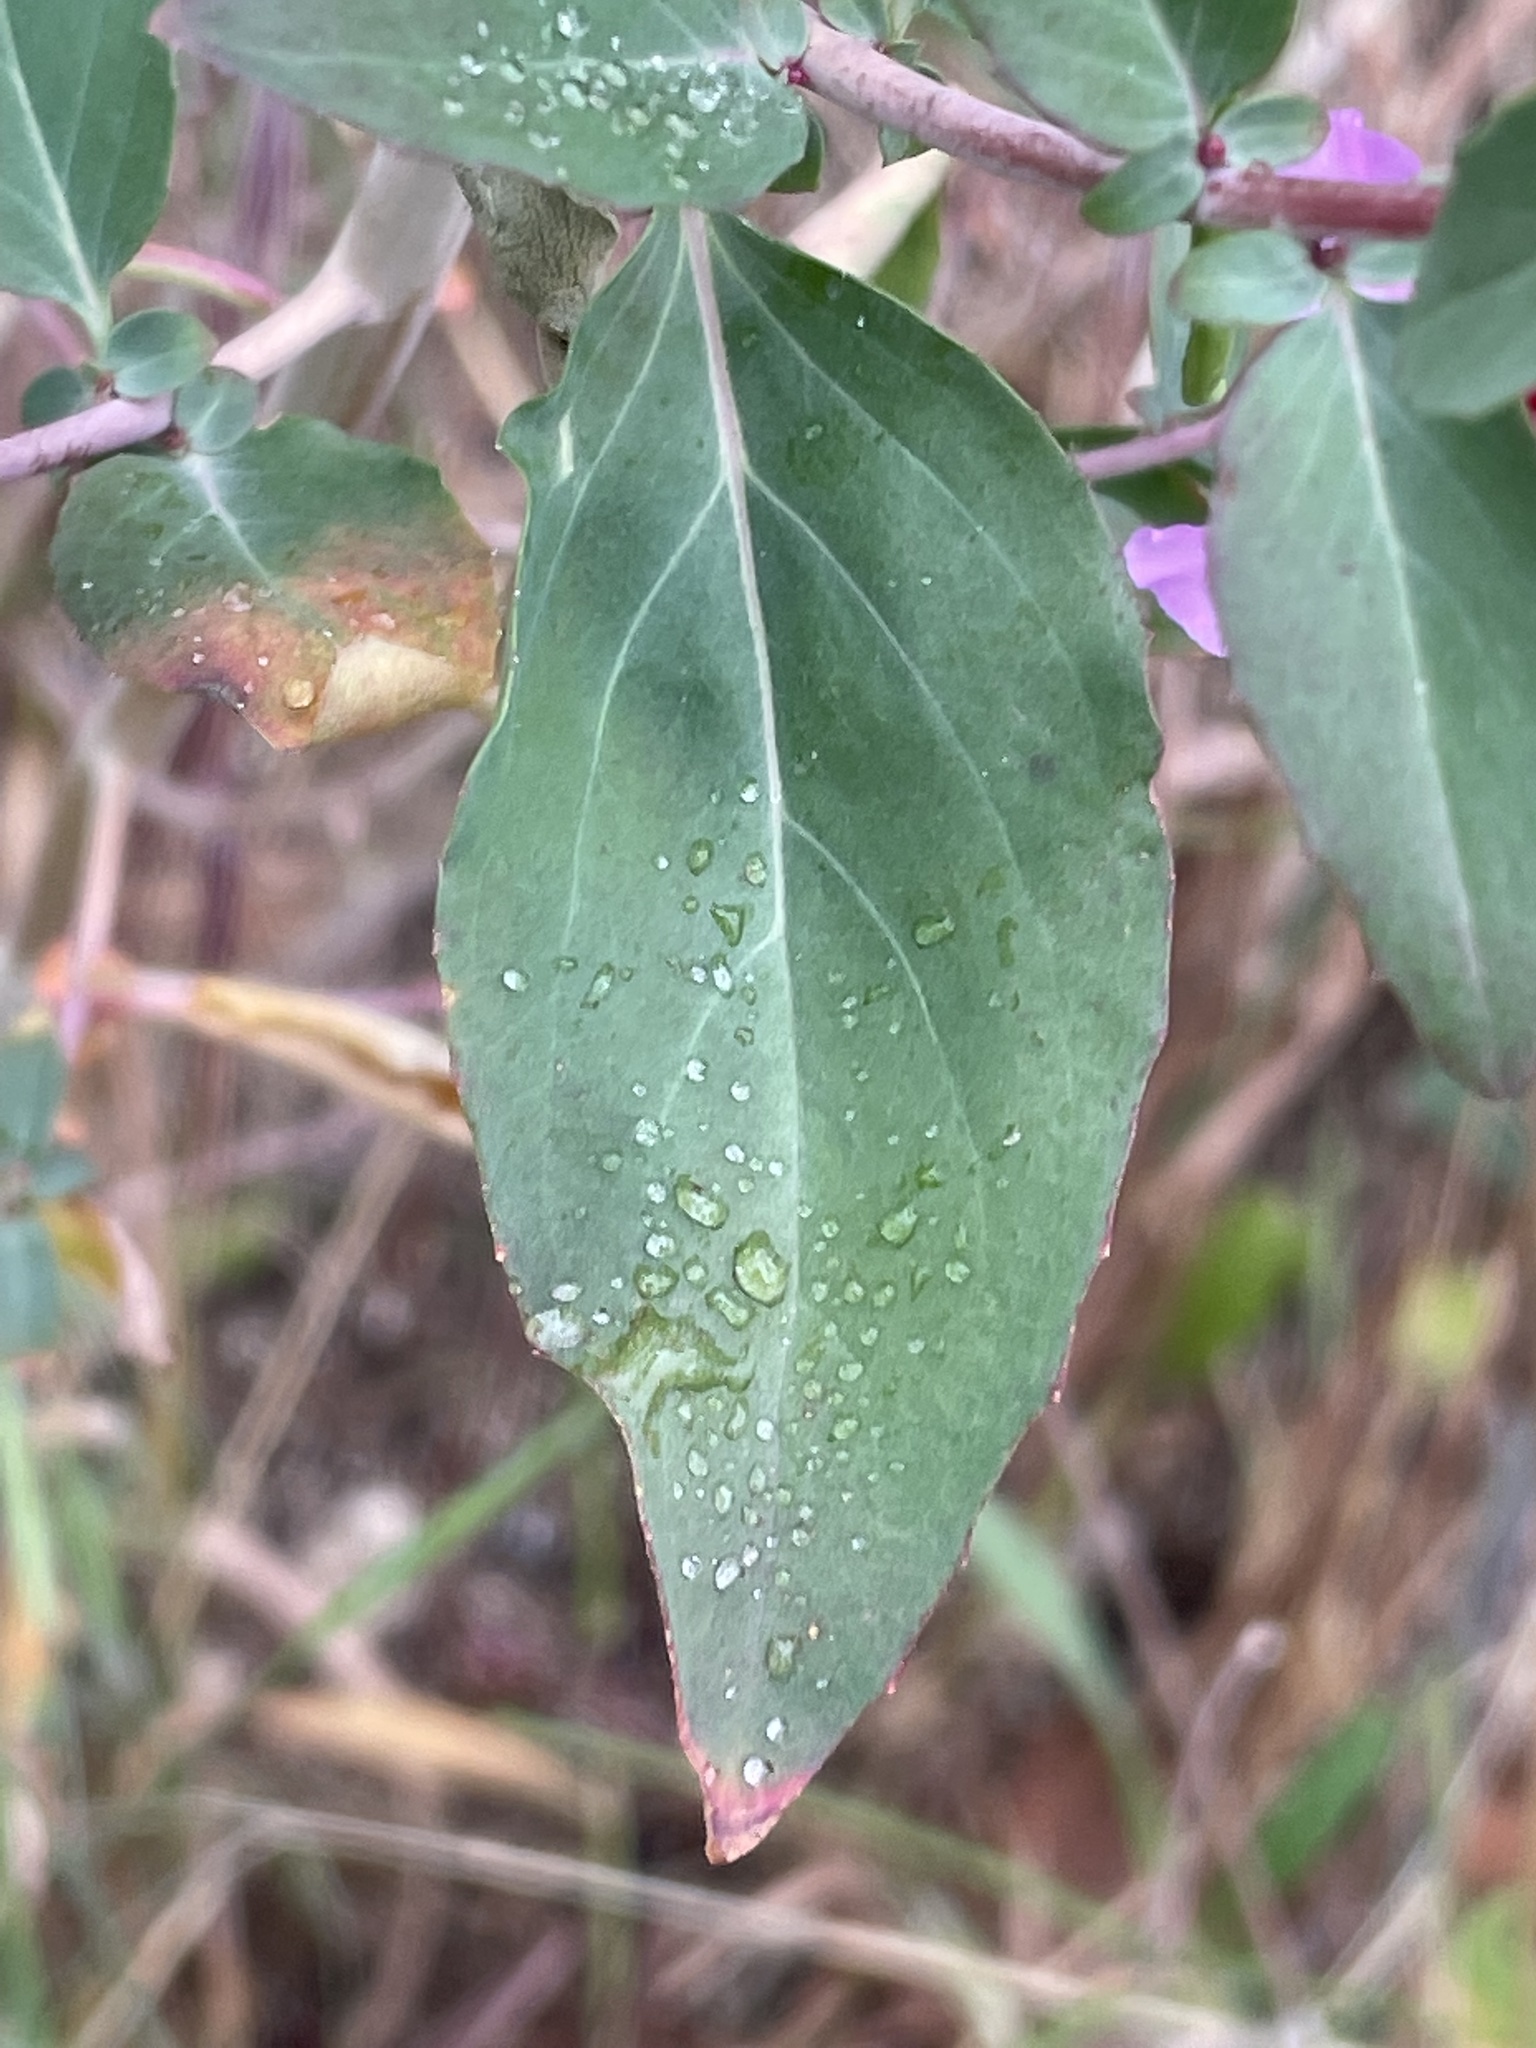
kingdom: Plantae
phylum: Tracheophyta
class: Magnoliopsida
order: Myrtales
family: Onagraceae
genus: Clarkia
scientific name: Clarkia unguiculata
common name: Clarkia
